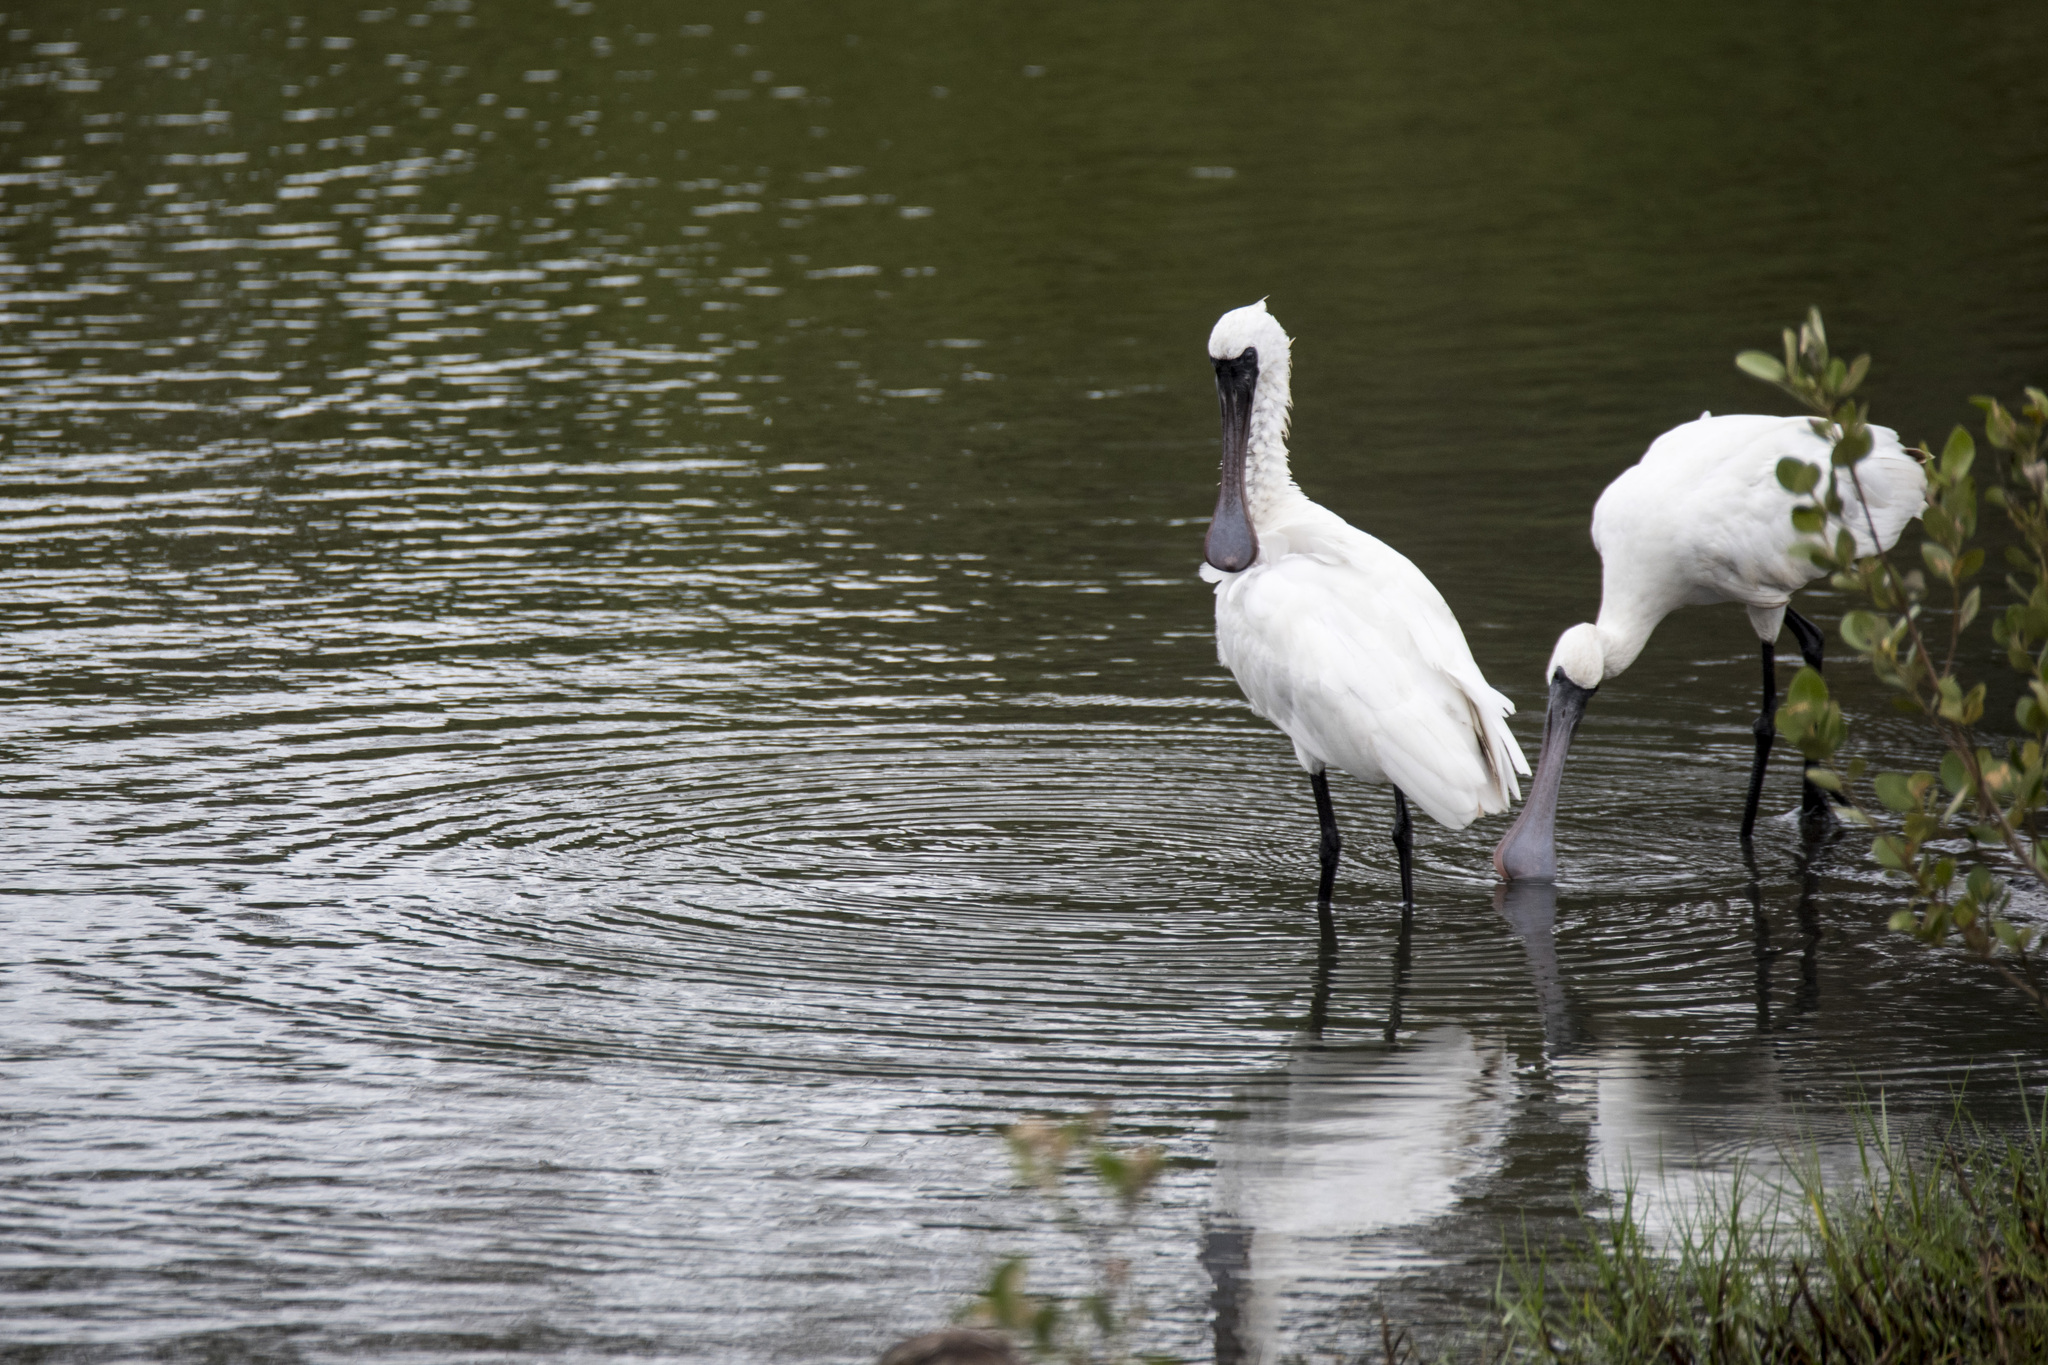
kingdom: Animalia
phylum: Chordata
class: Aves
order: Pelecaniformes
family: Threskiornithidae
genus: Platalea
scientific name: Platalea minor
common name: Black-faced spoonbill
